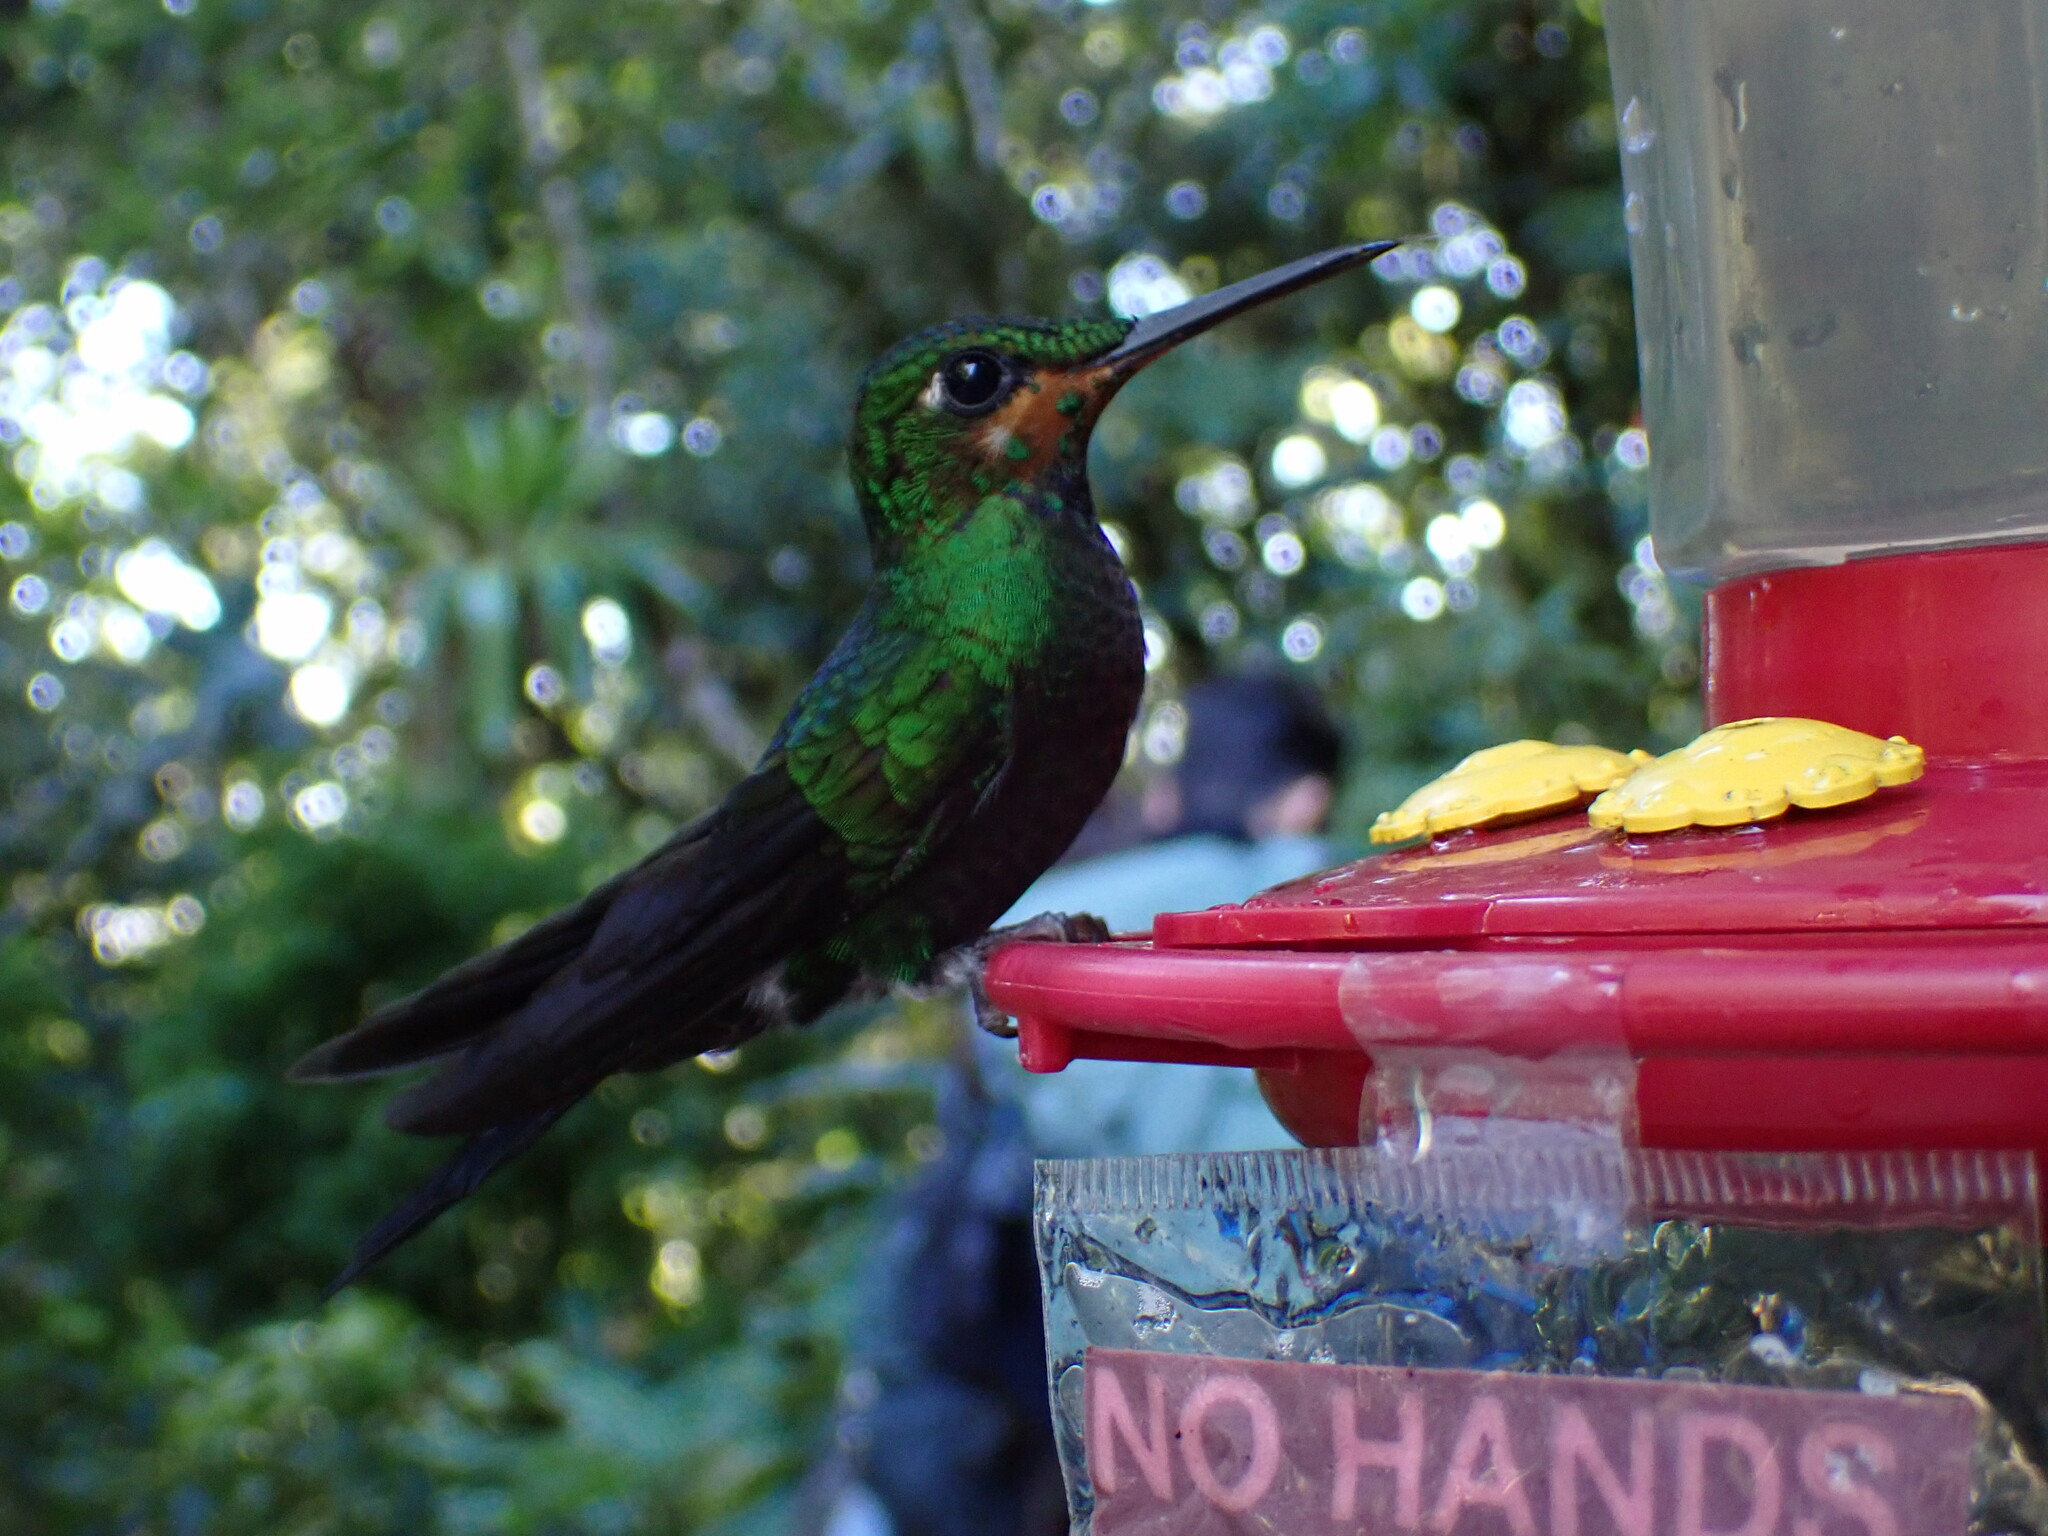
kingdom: Animalia
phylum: Chordata
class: Aves
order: Apodiformes
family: Trochilidae
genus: Heliodoxa
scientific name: Heliodoxa jacula
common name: Green-crowned brilliant
